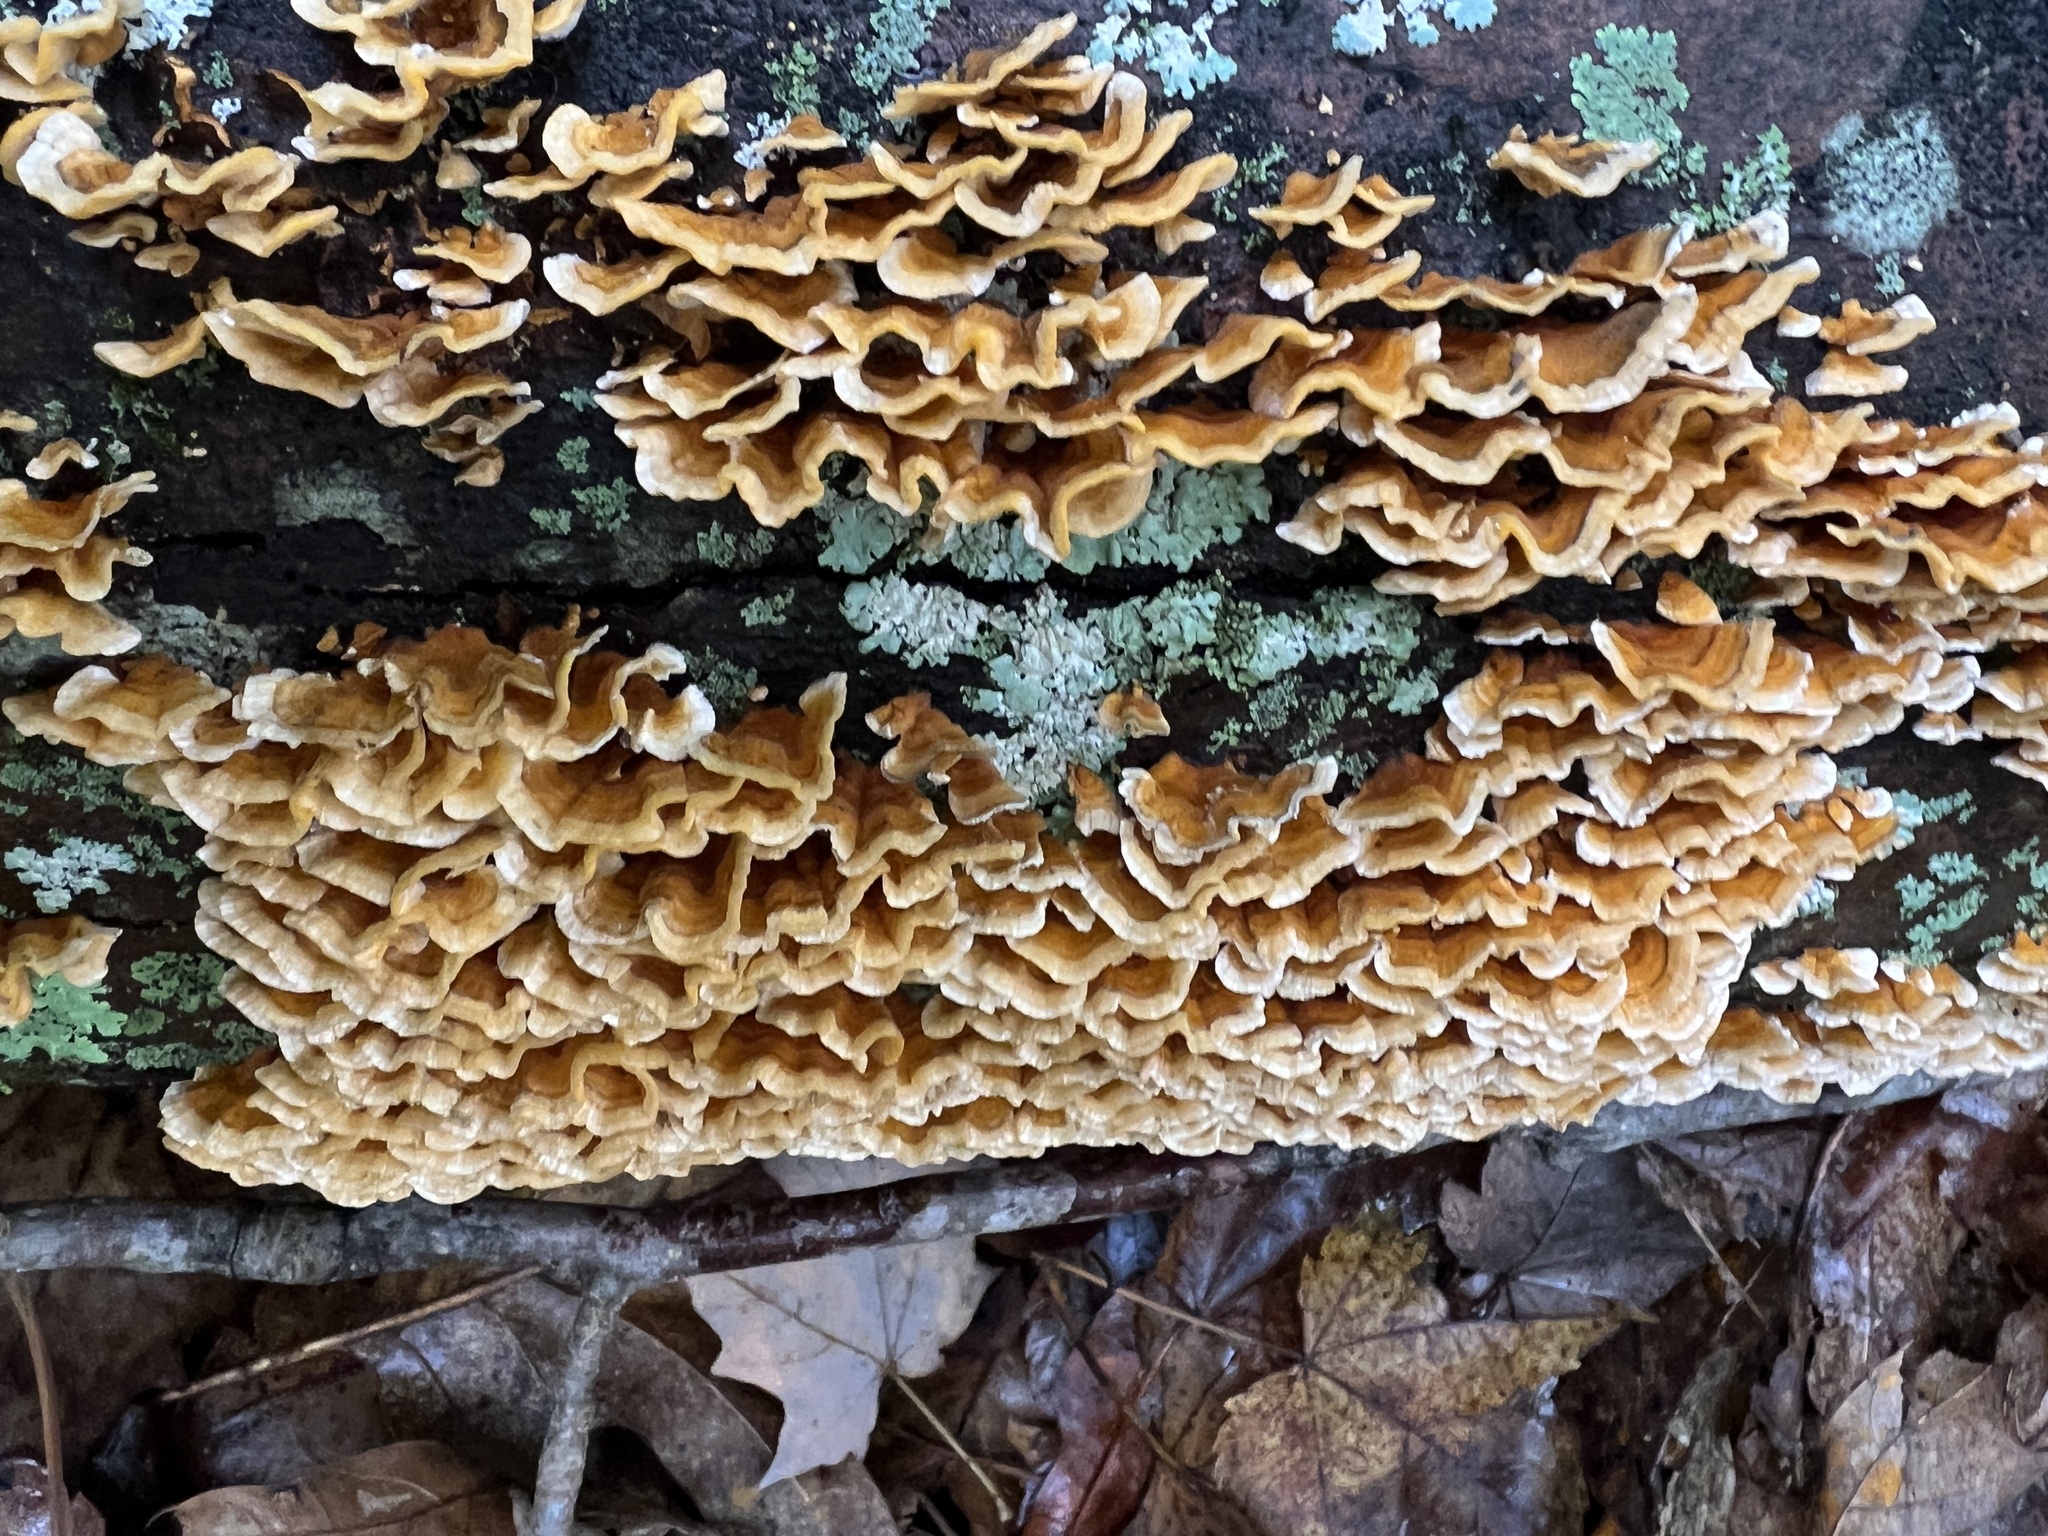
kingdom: Fungi
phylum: Basidiomycota
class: Agaricomycetes
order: Russulales
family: Stereaceae
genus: Stereum
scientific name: Stereum complicatum
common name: Crowded parchment
